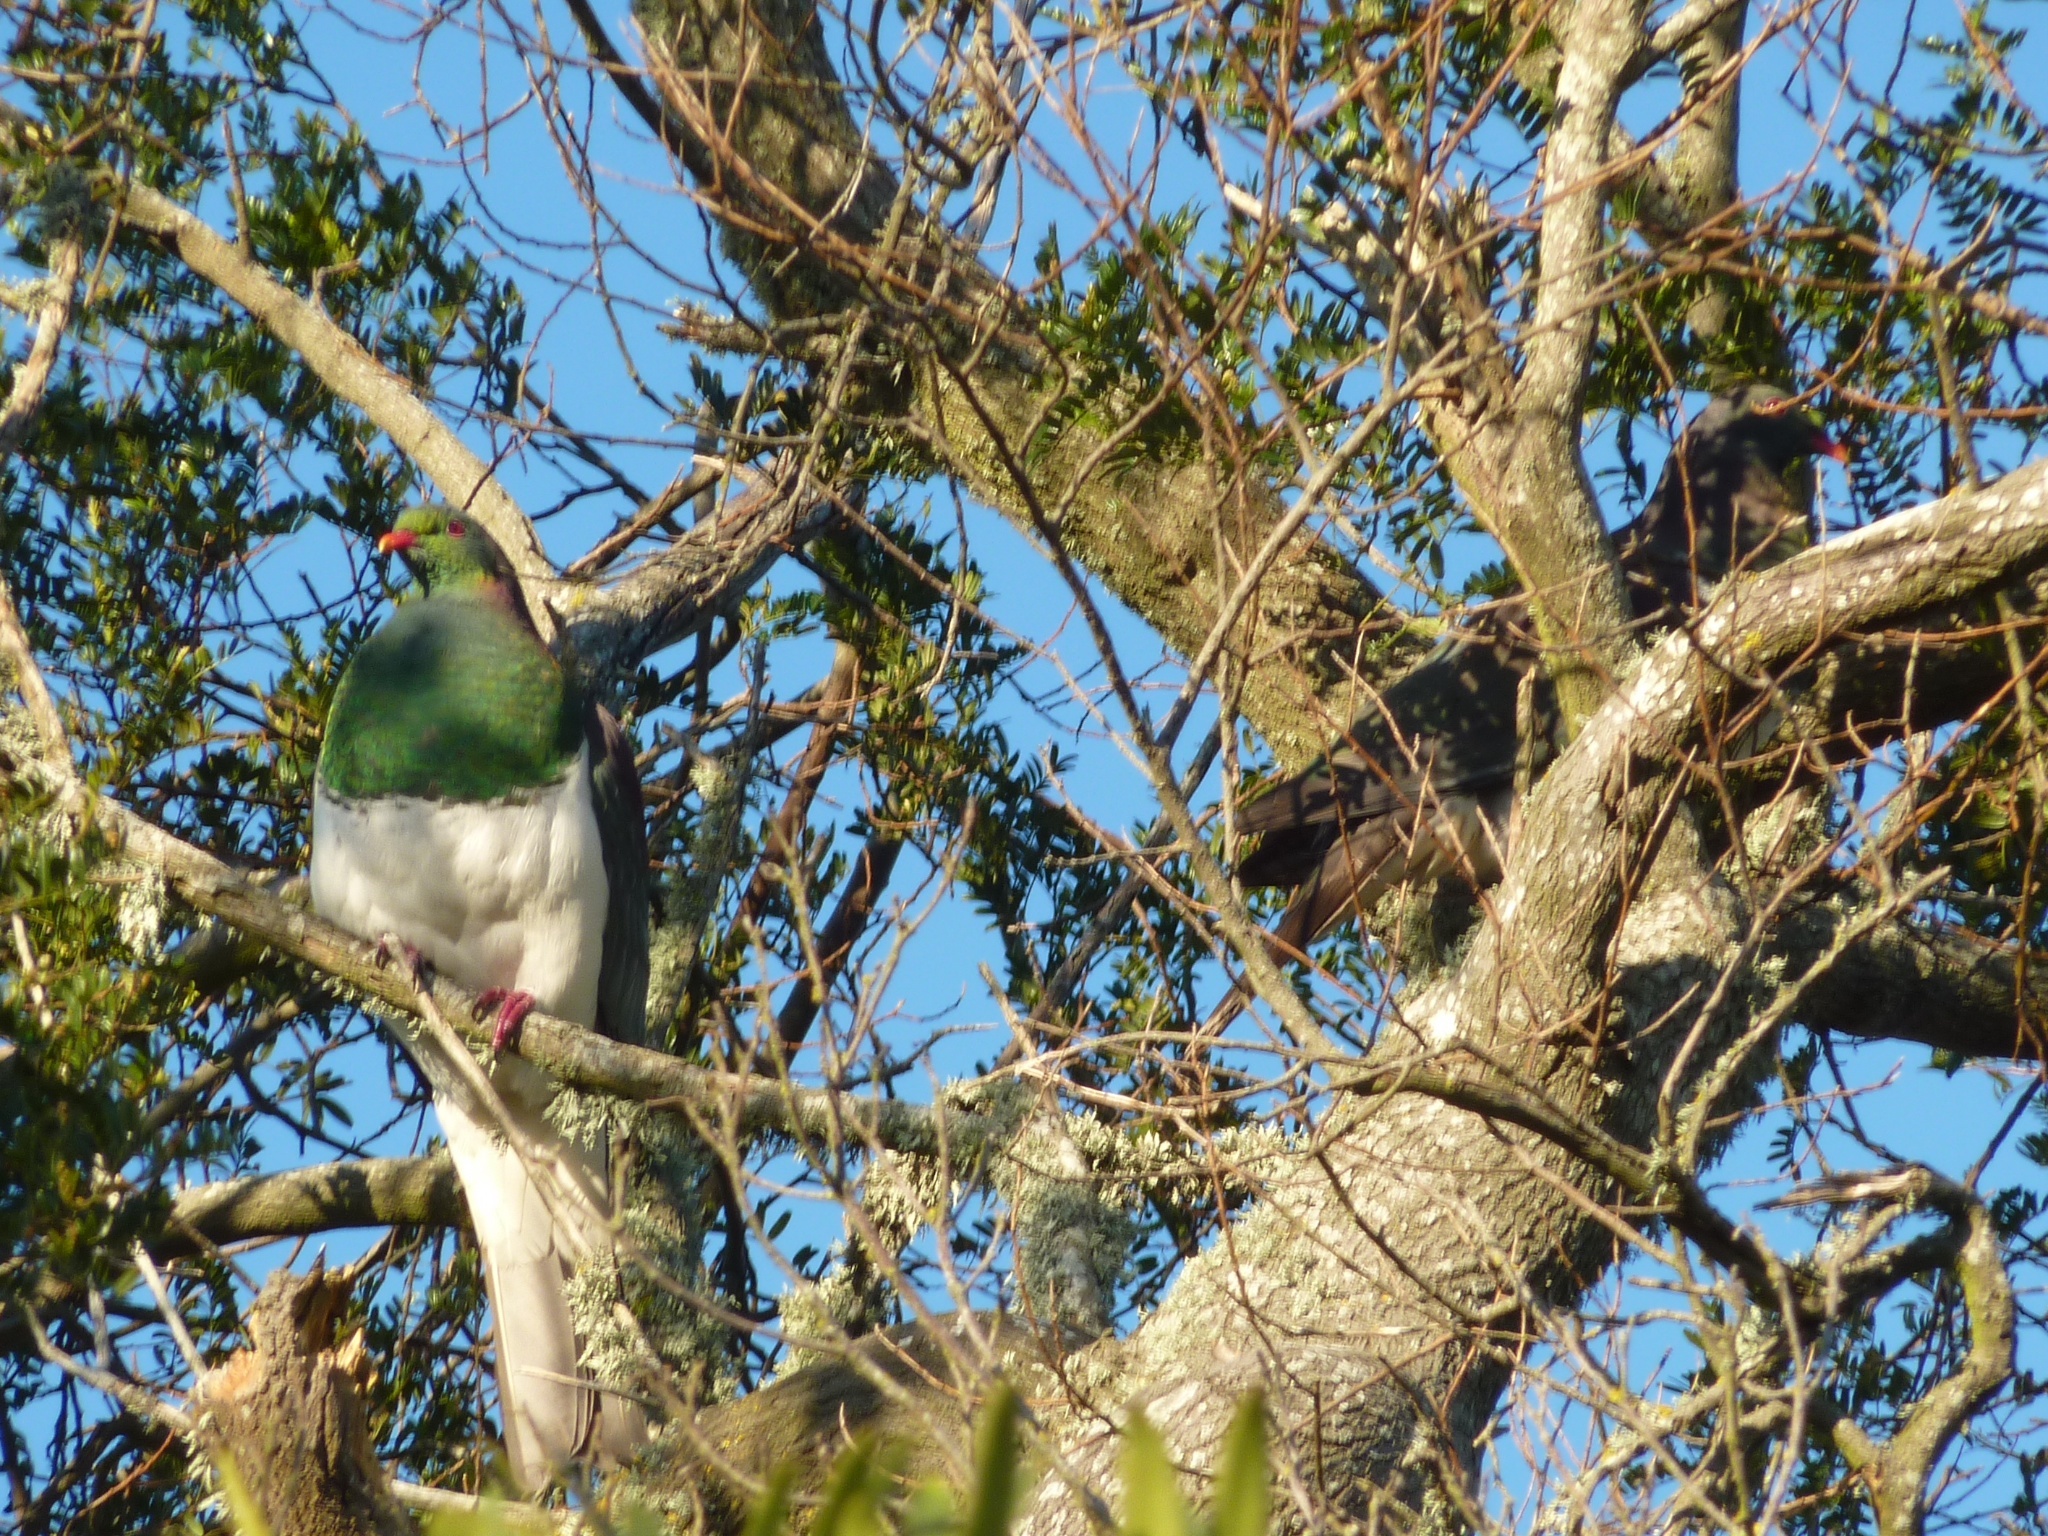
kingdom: Animalia
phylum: Chordata
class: Aves
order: Columbiformes
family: Columbidae
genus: Hemiphaga
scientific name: Hemiphaga novaeseelandiae
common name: New zealand pigeon
